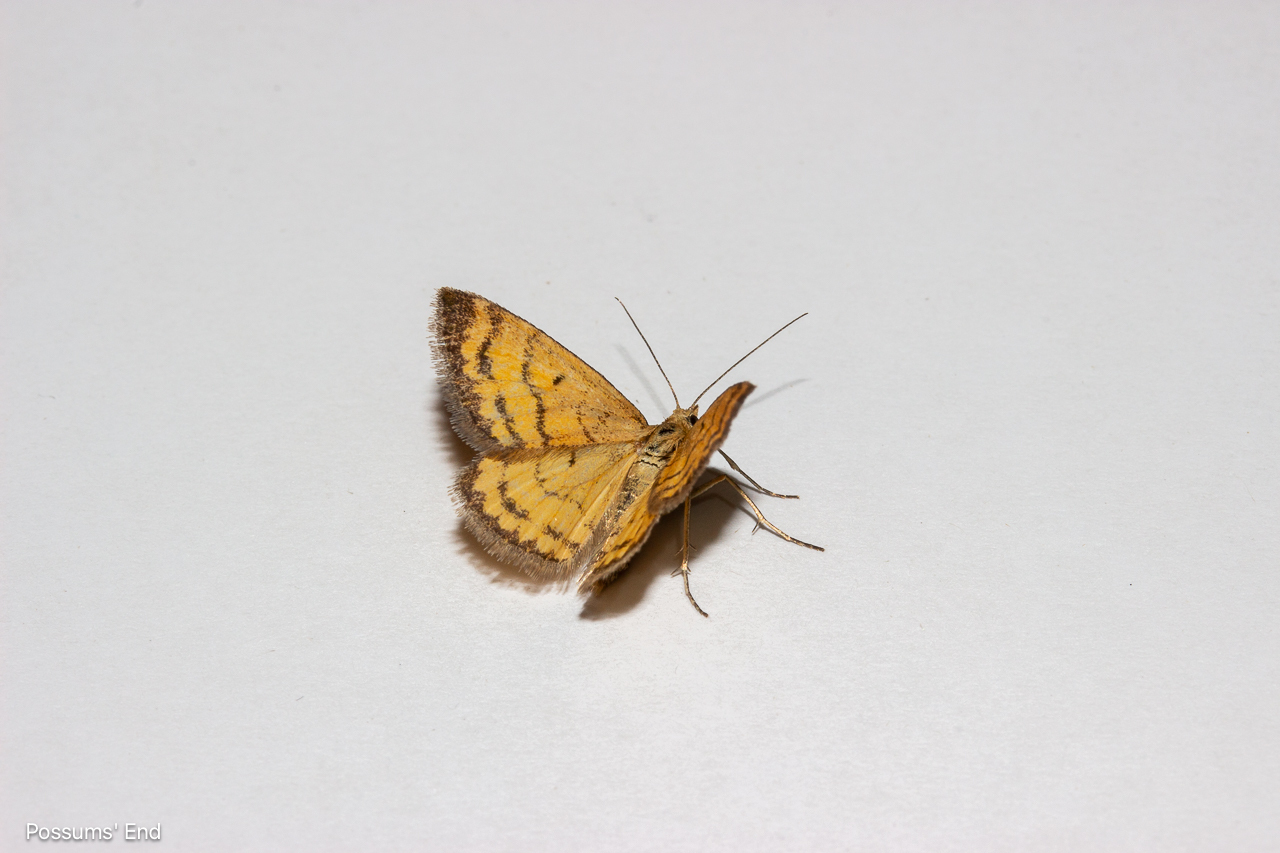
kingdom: Animalia
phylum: Arthropoda
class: Insecta
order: Lepidoptera
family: Geometridae
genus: Asaphodes
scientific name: Asaphodes abrogata
